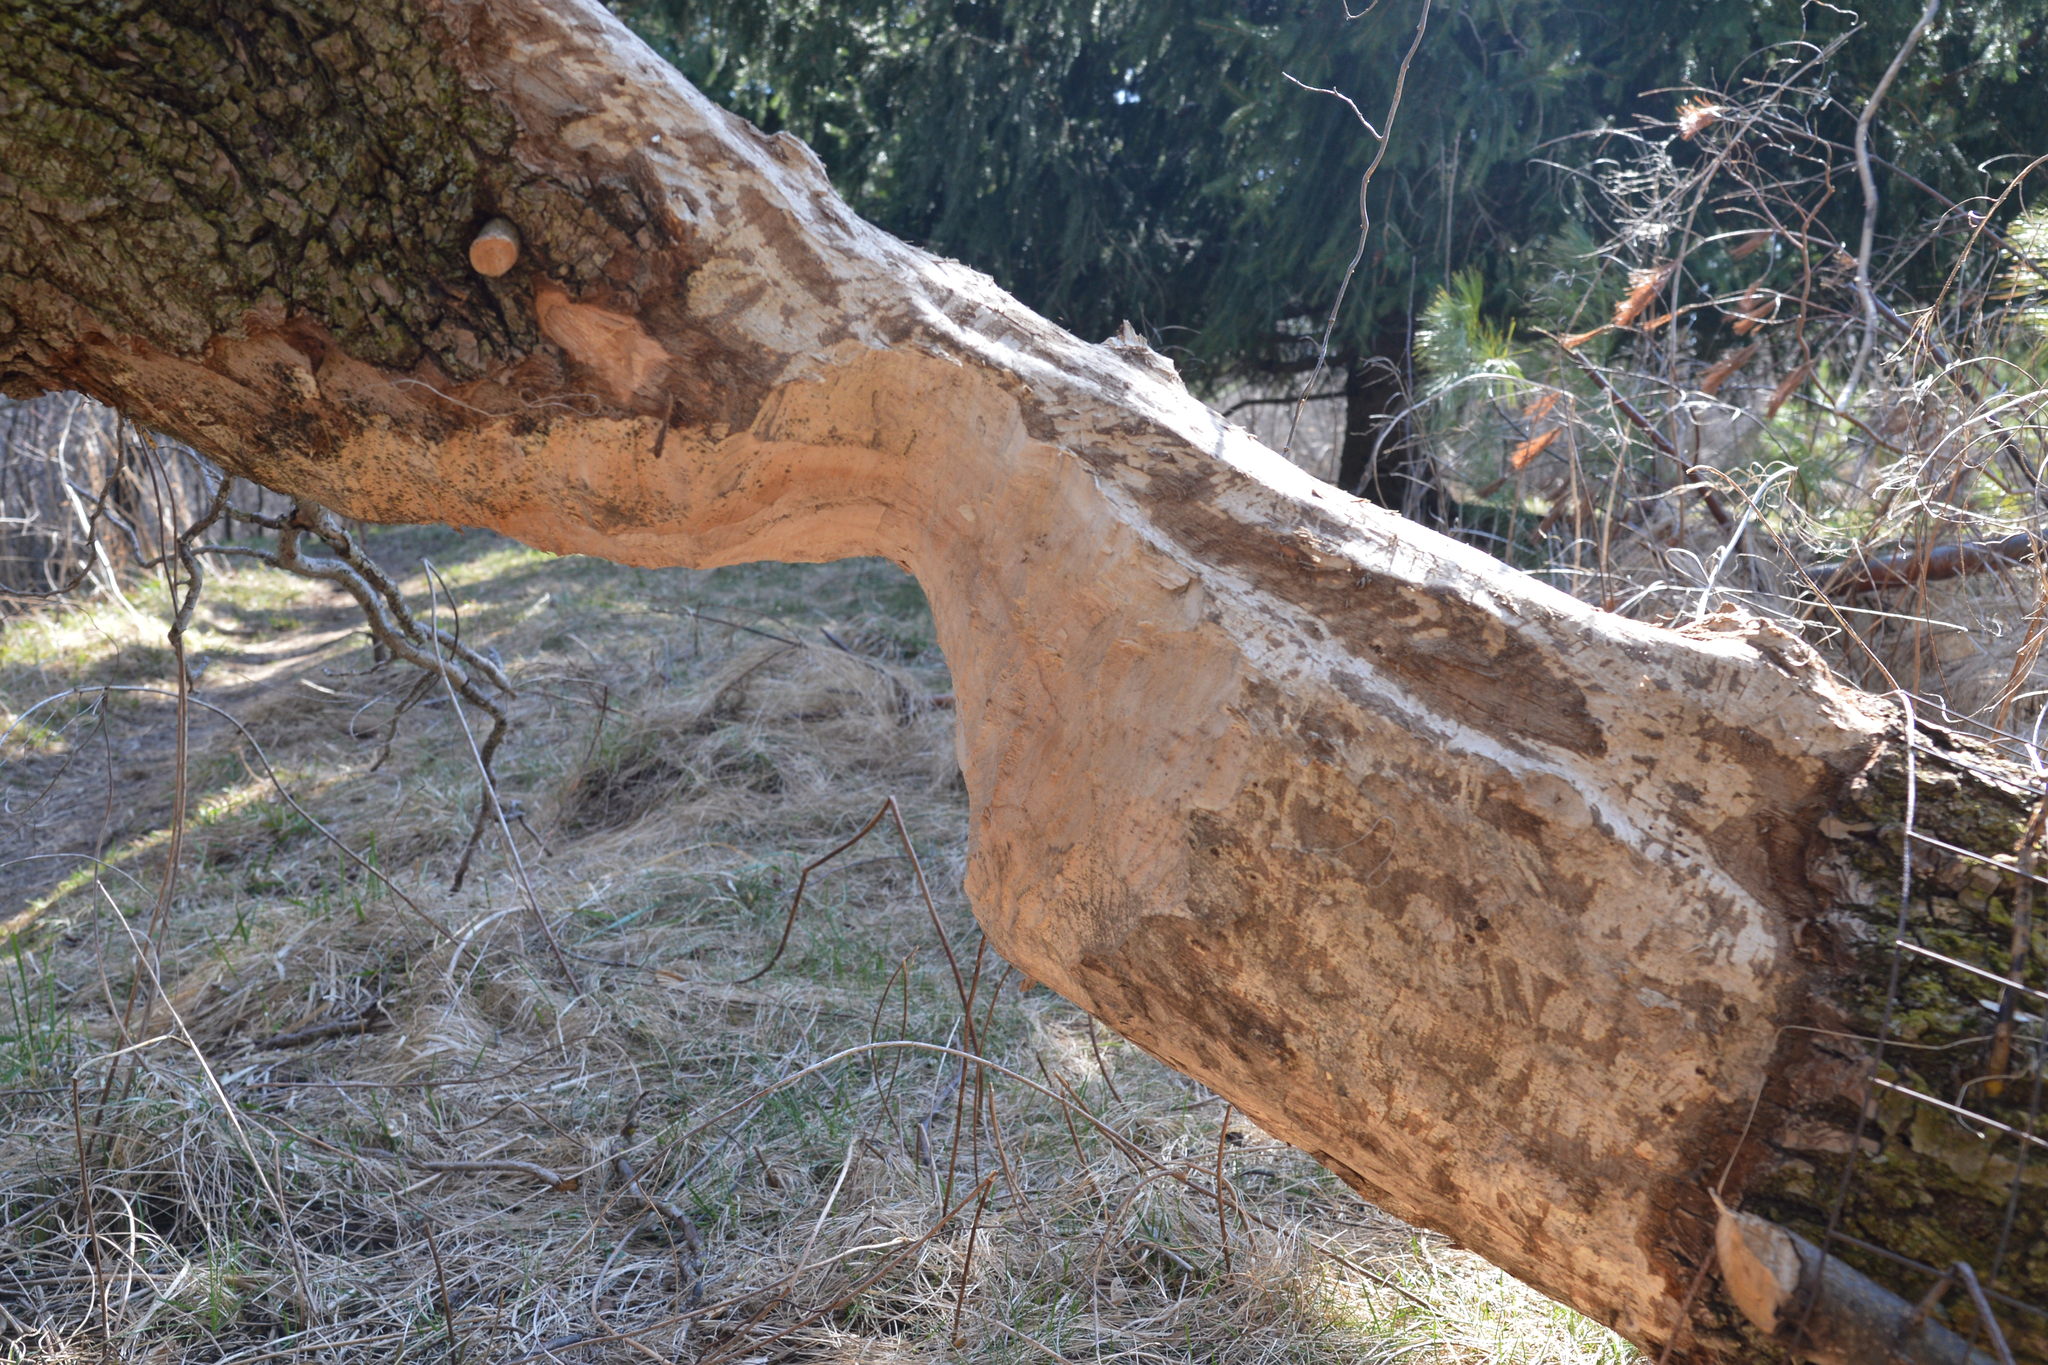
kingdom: Animalia
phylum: Chordata
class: Mammalia
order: Rodentia
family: Castoridae
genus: Castor
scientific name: Castor canadensis
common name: American beaver
